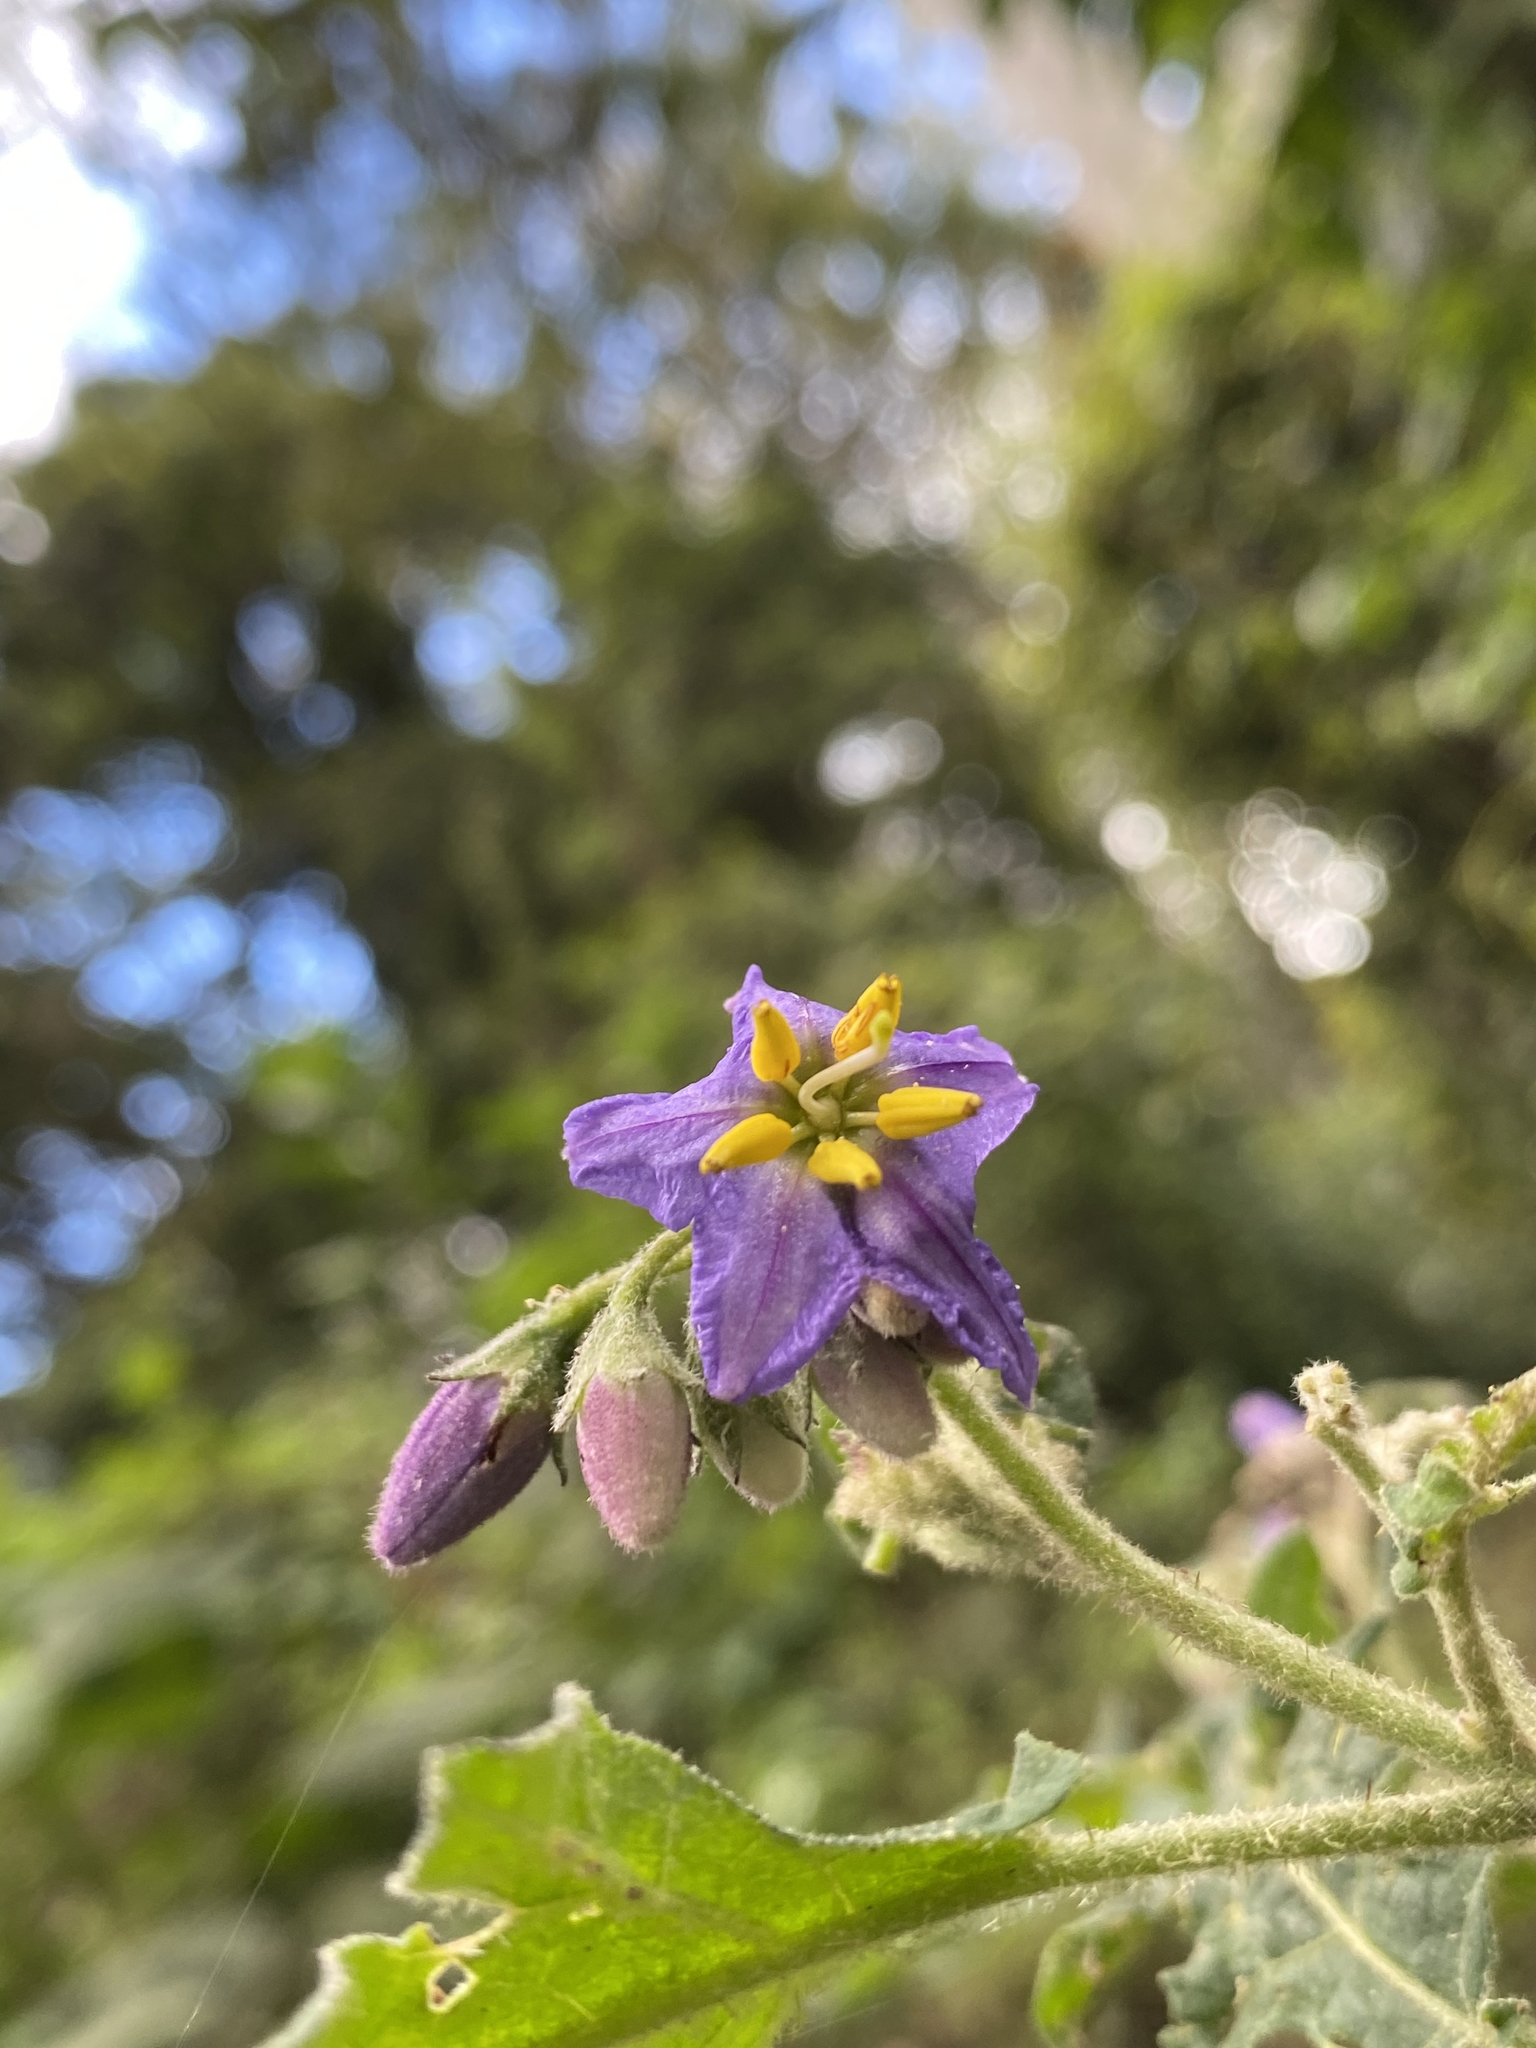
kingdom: Plantae
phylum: Tracheophyta
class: Magnoliopsida
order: Solanales
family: Solanaceae
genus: Solanum
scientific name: Solanum semiarmatum
